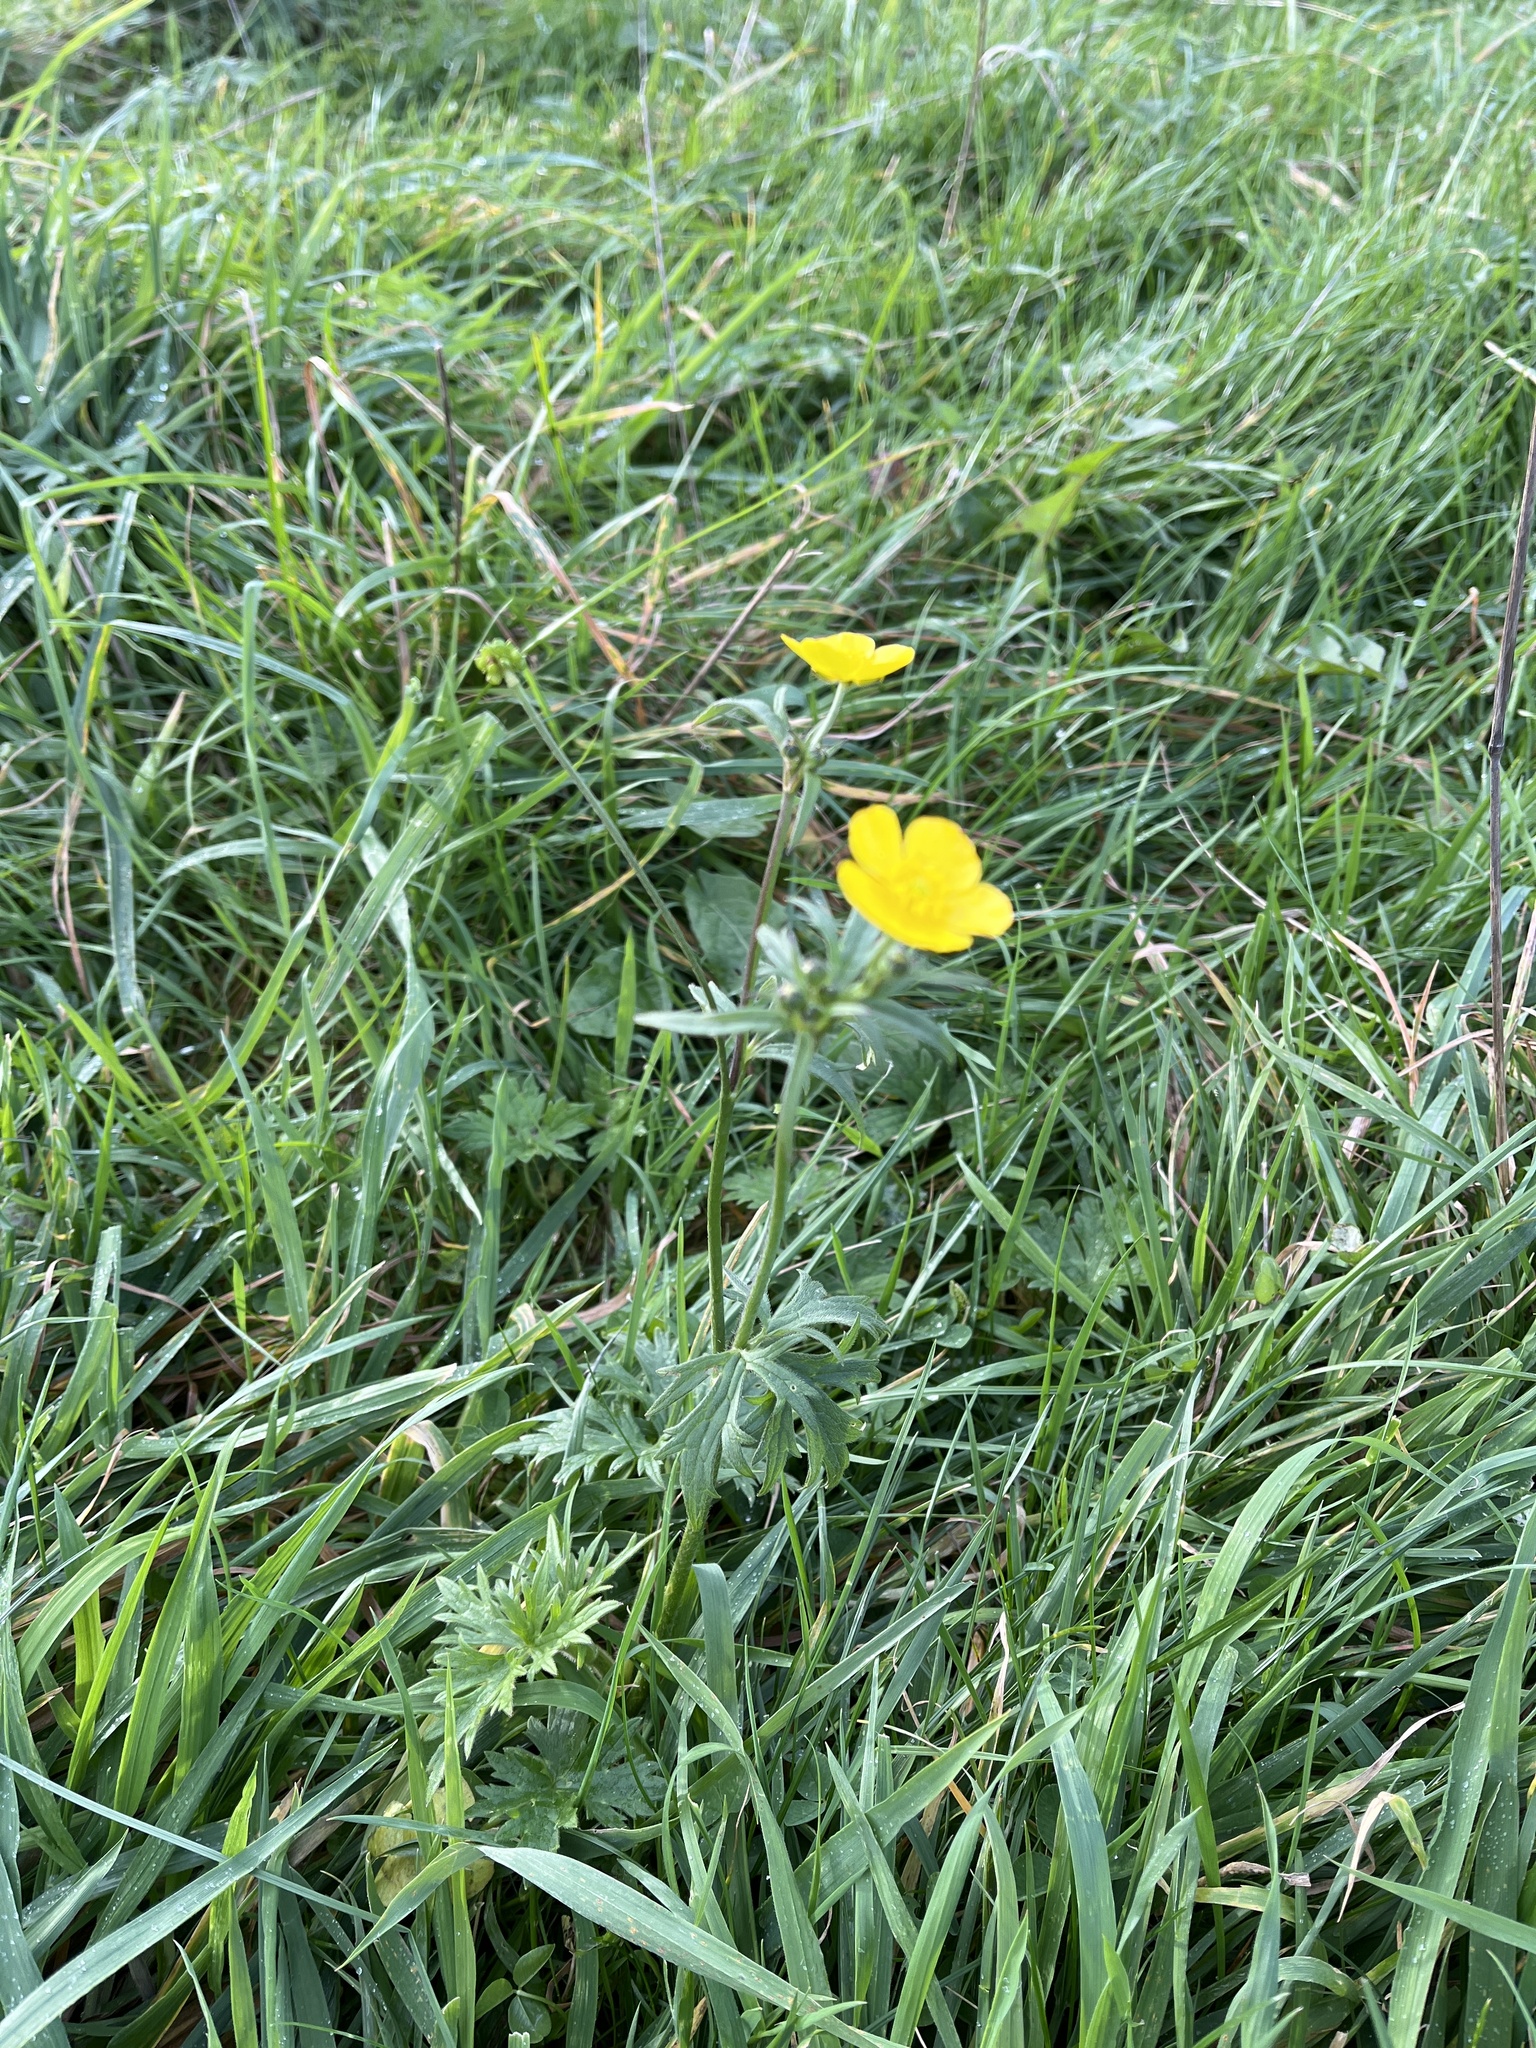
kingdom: Plantae
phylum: Tracheophyta
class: Magnoliopsida
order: Ranunculales
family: Ranunculaceae
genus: Ranunculus
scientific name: Ranunculus acris
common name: Meadow buttercup
